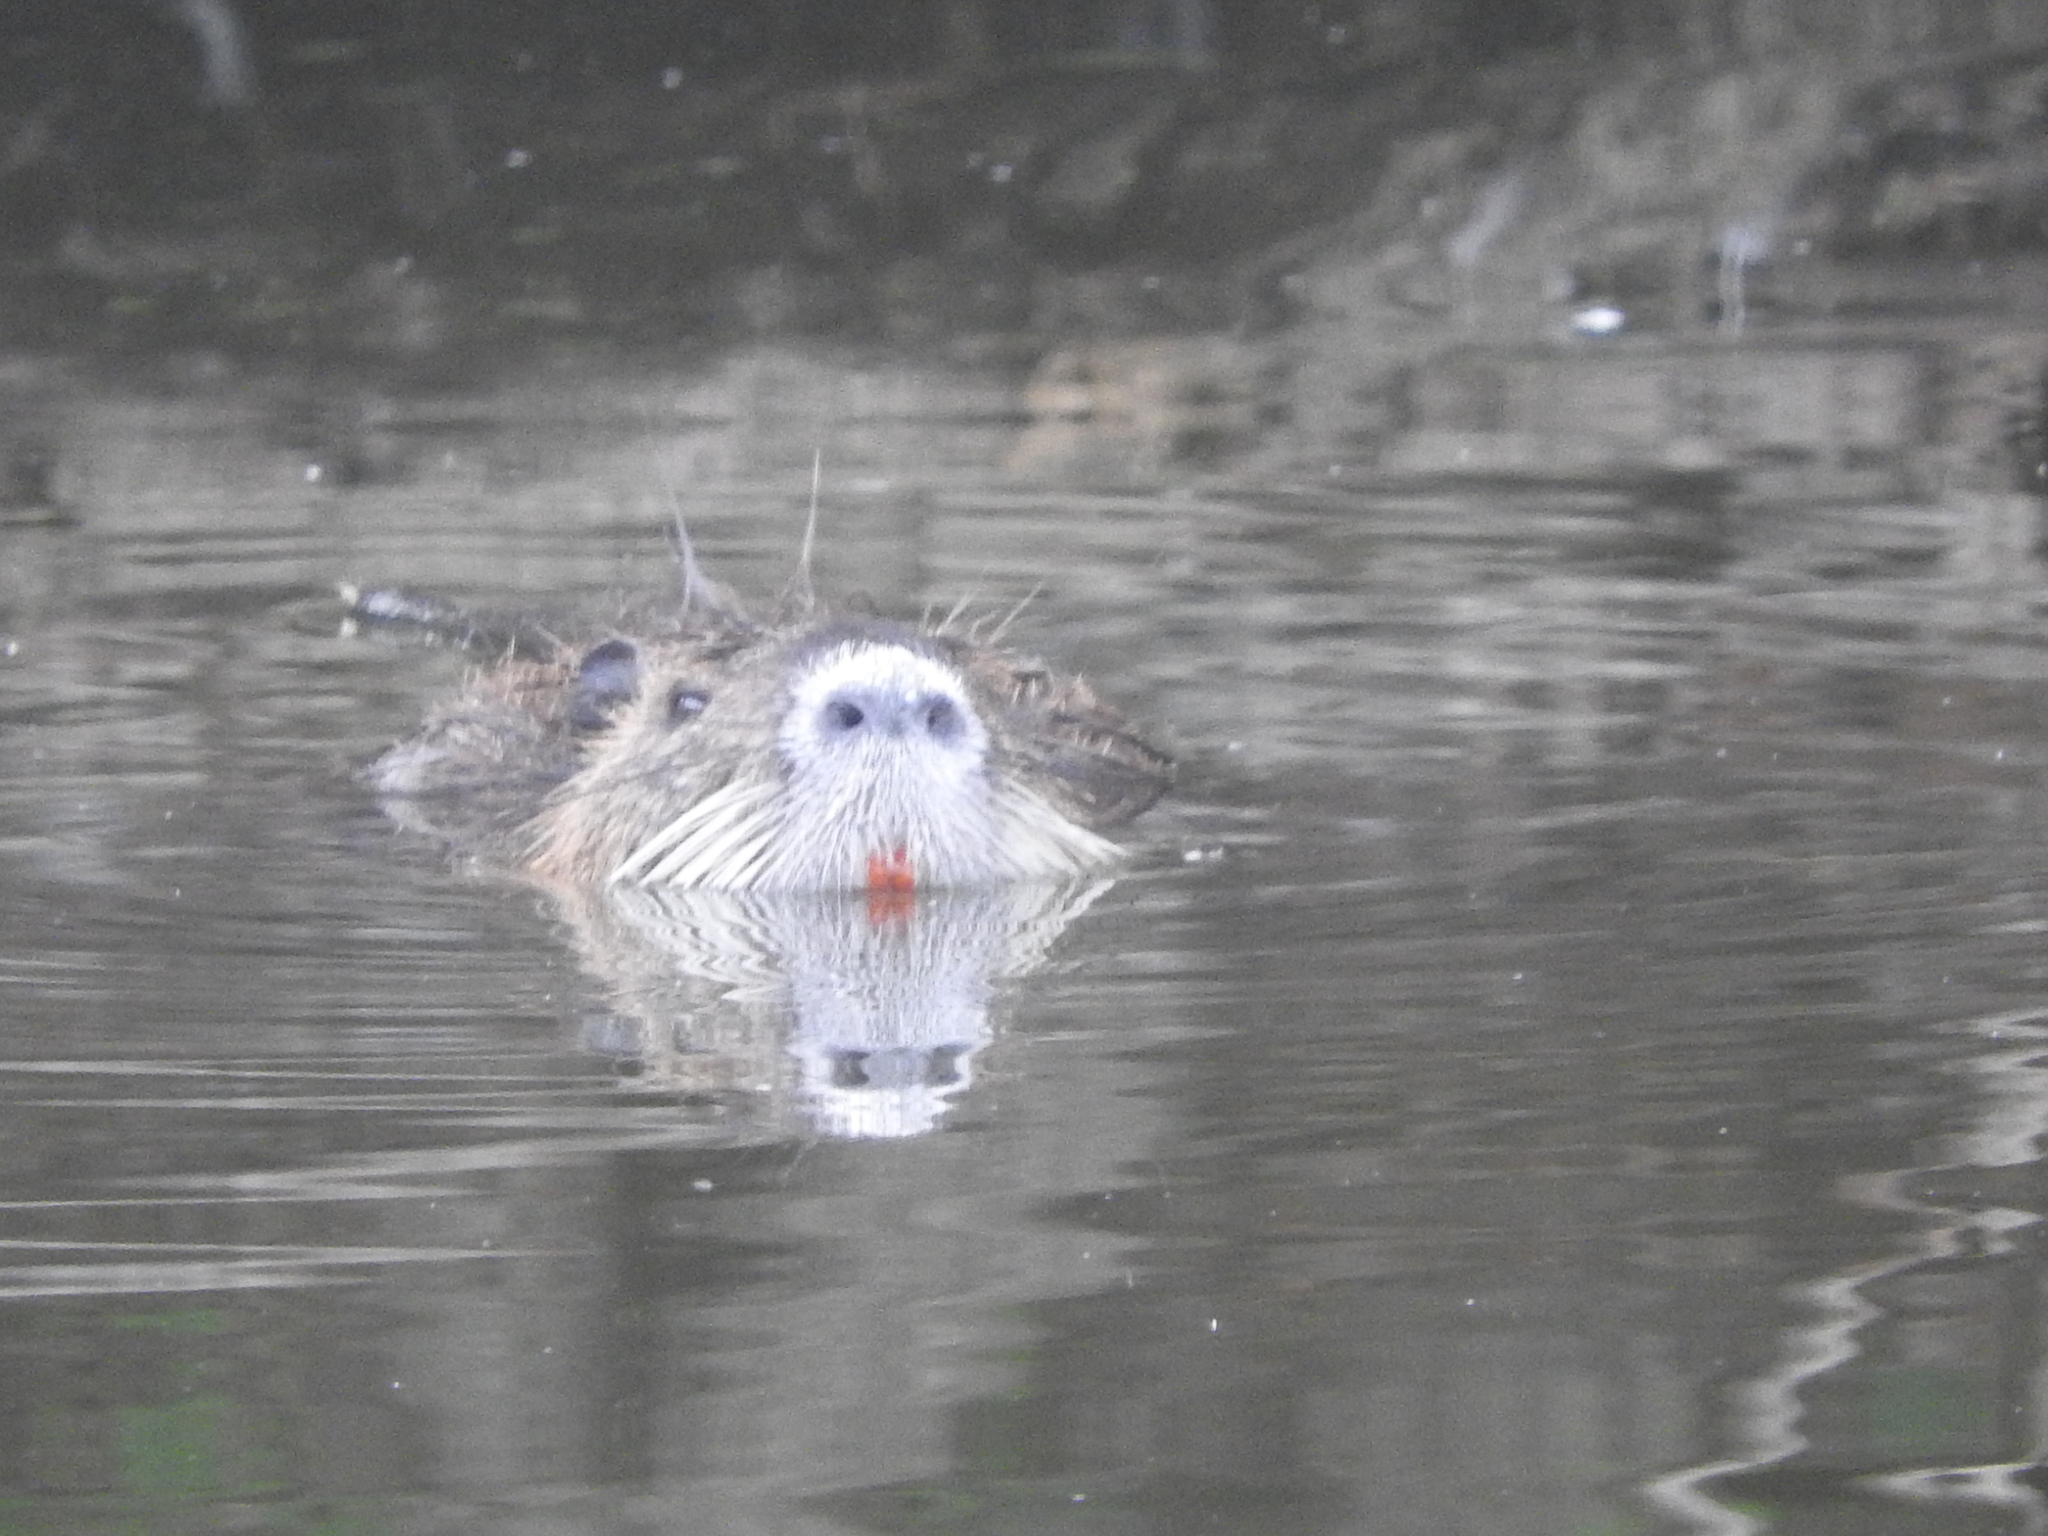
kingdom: Animalia
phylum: Chordata
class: Mammalia
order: Rodentia
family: Myocastoridae
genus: Myocastor
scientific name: Myocastor coypus
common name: Coypu
